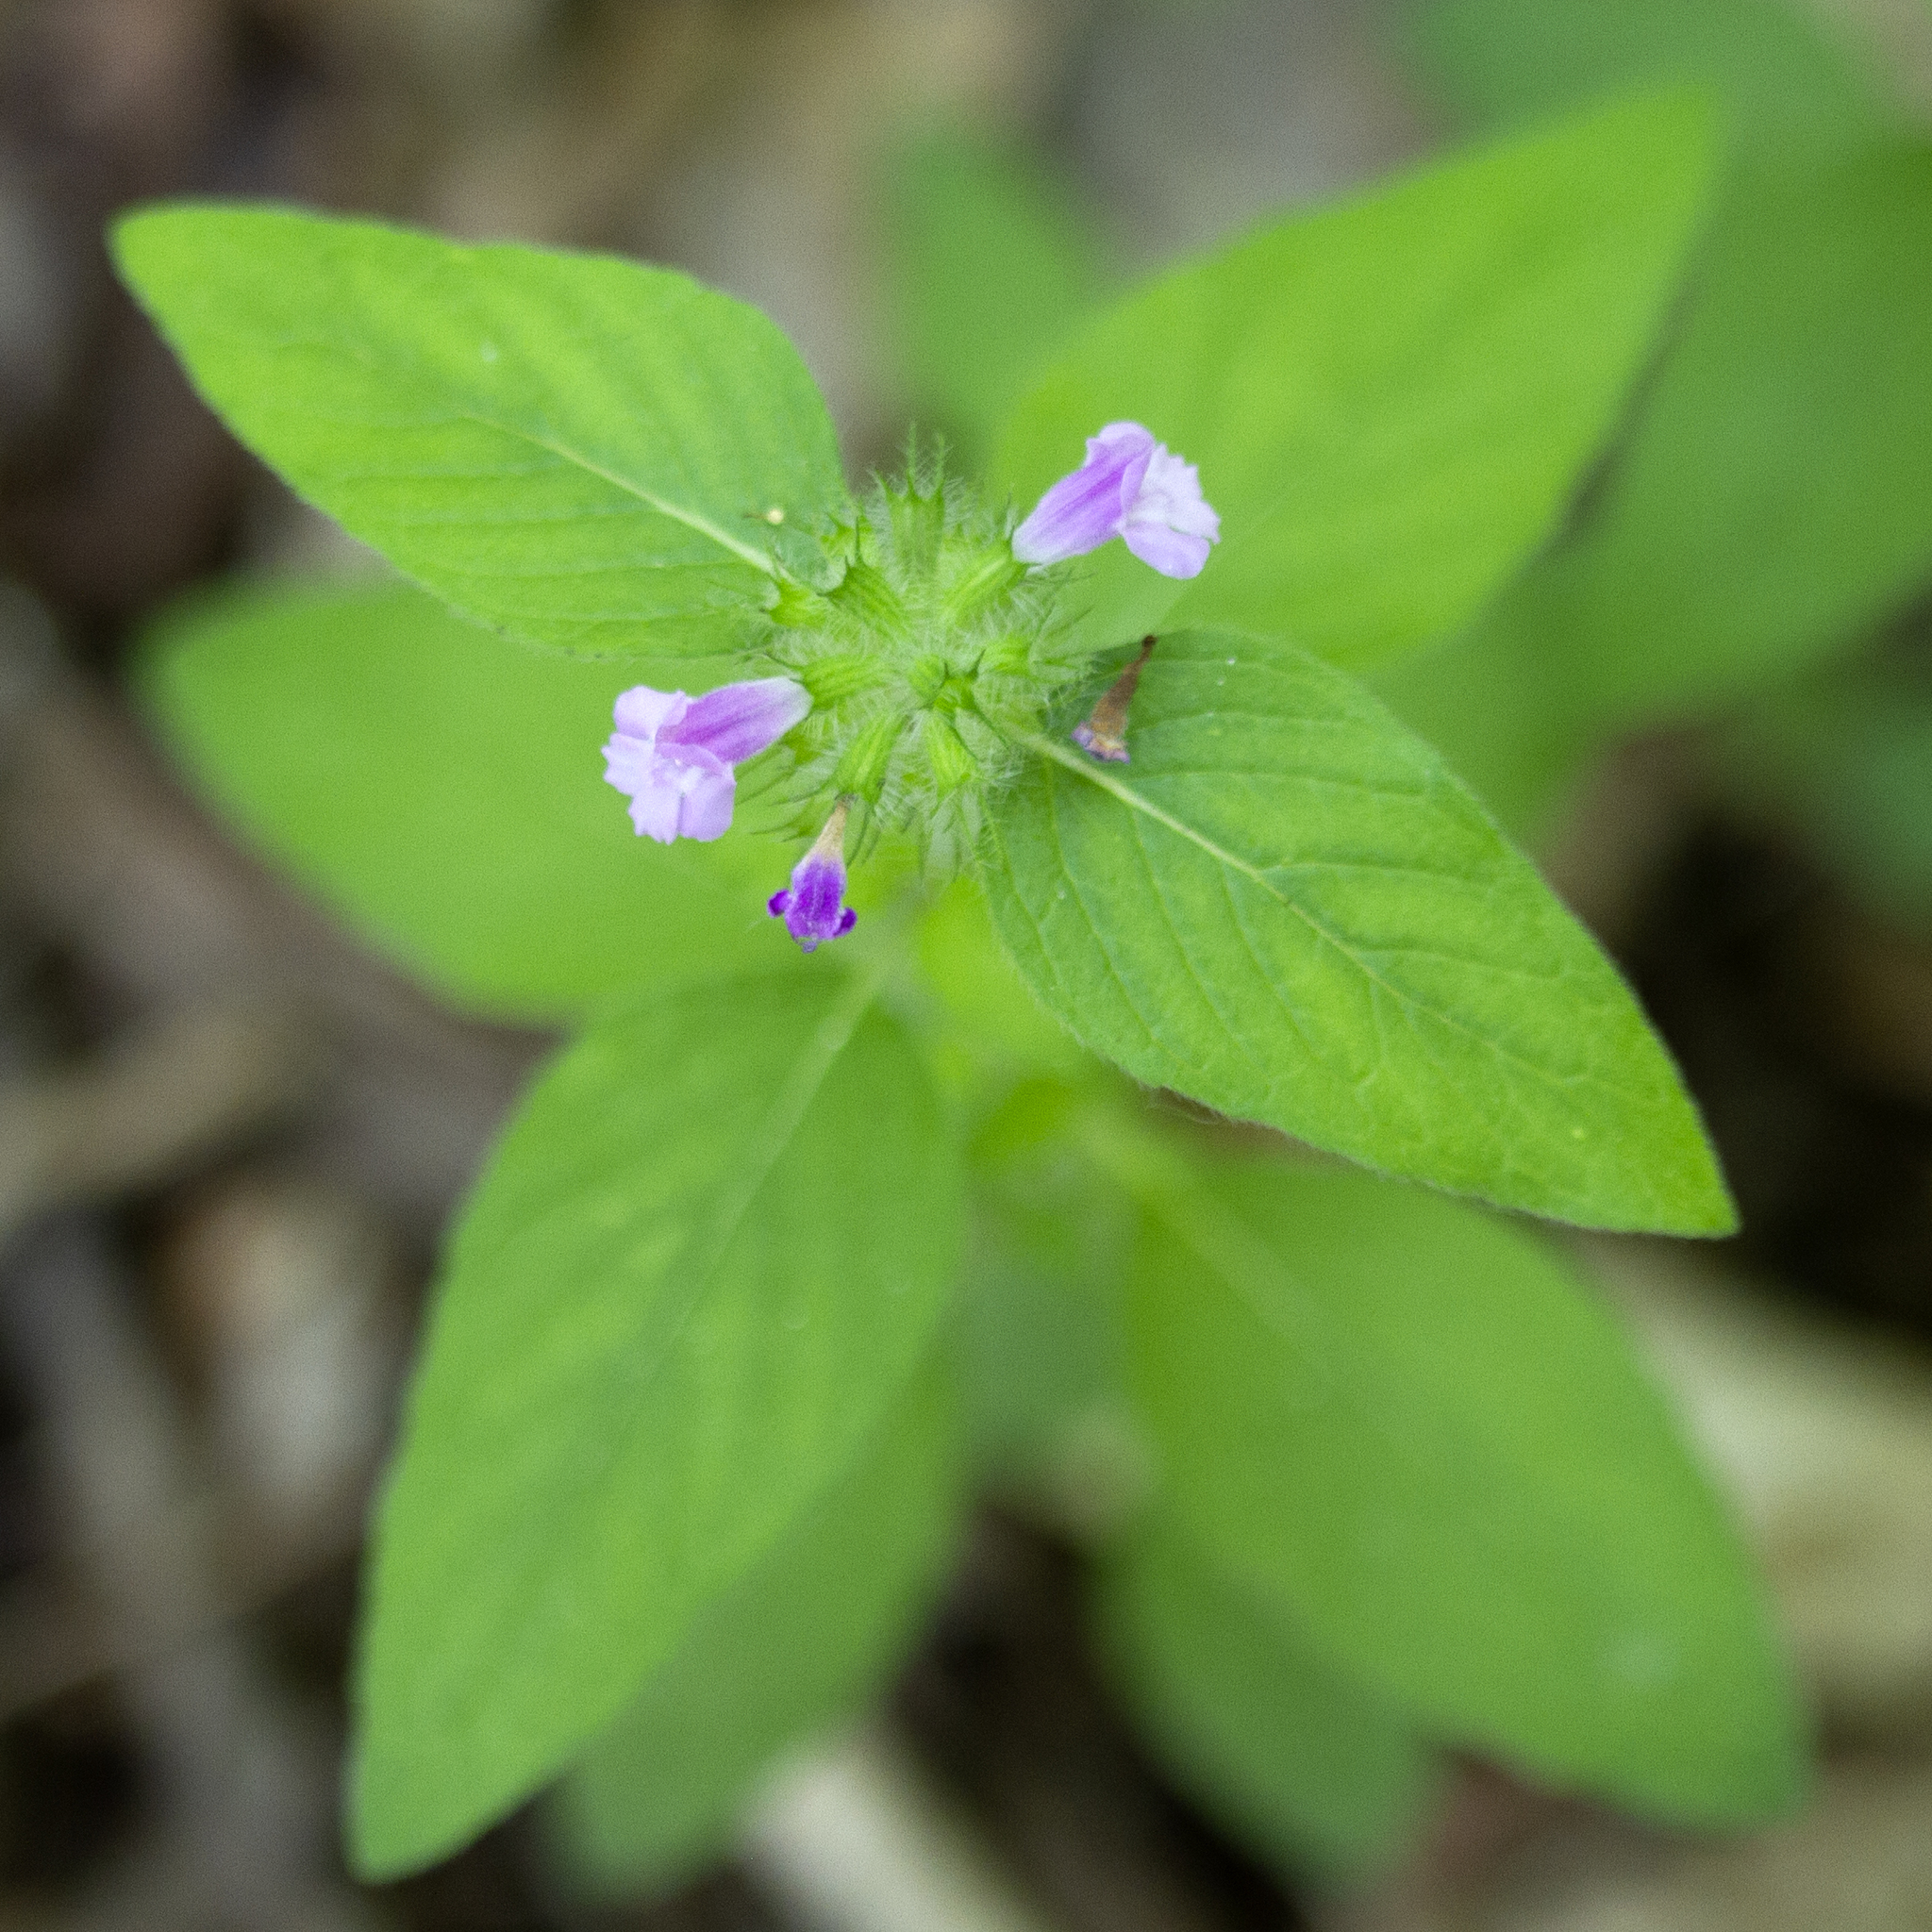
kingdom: Plantae
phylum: Tracheophyta
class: Magnoliopsida
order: Lamiales
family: Lamiaceae
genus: Clinopodium
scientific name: Clinopodium vulgare
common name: Wild basil
